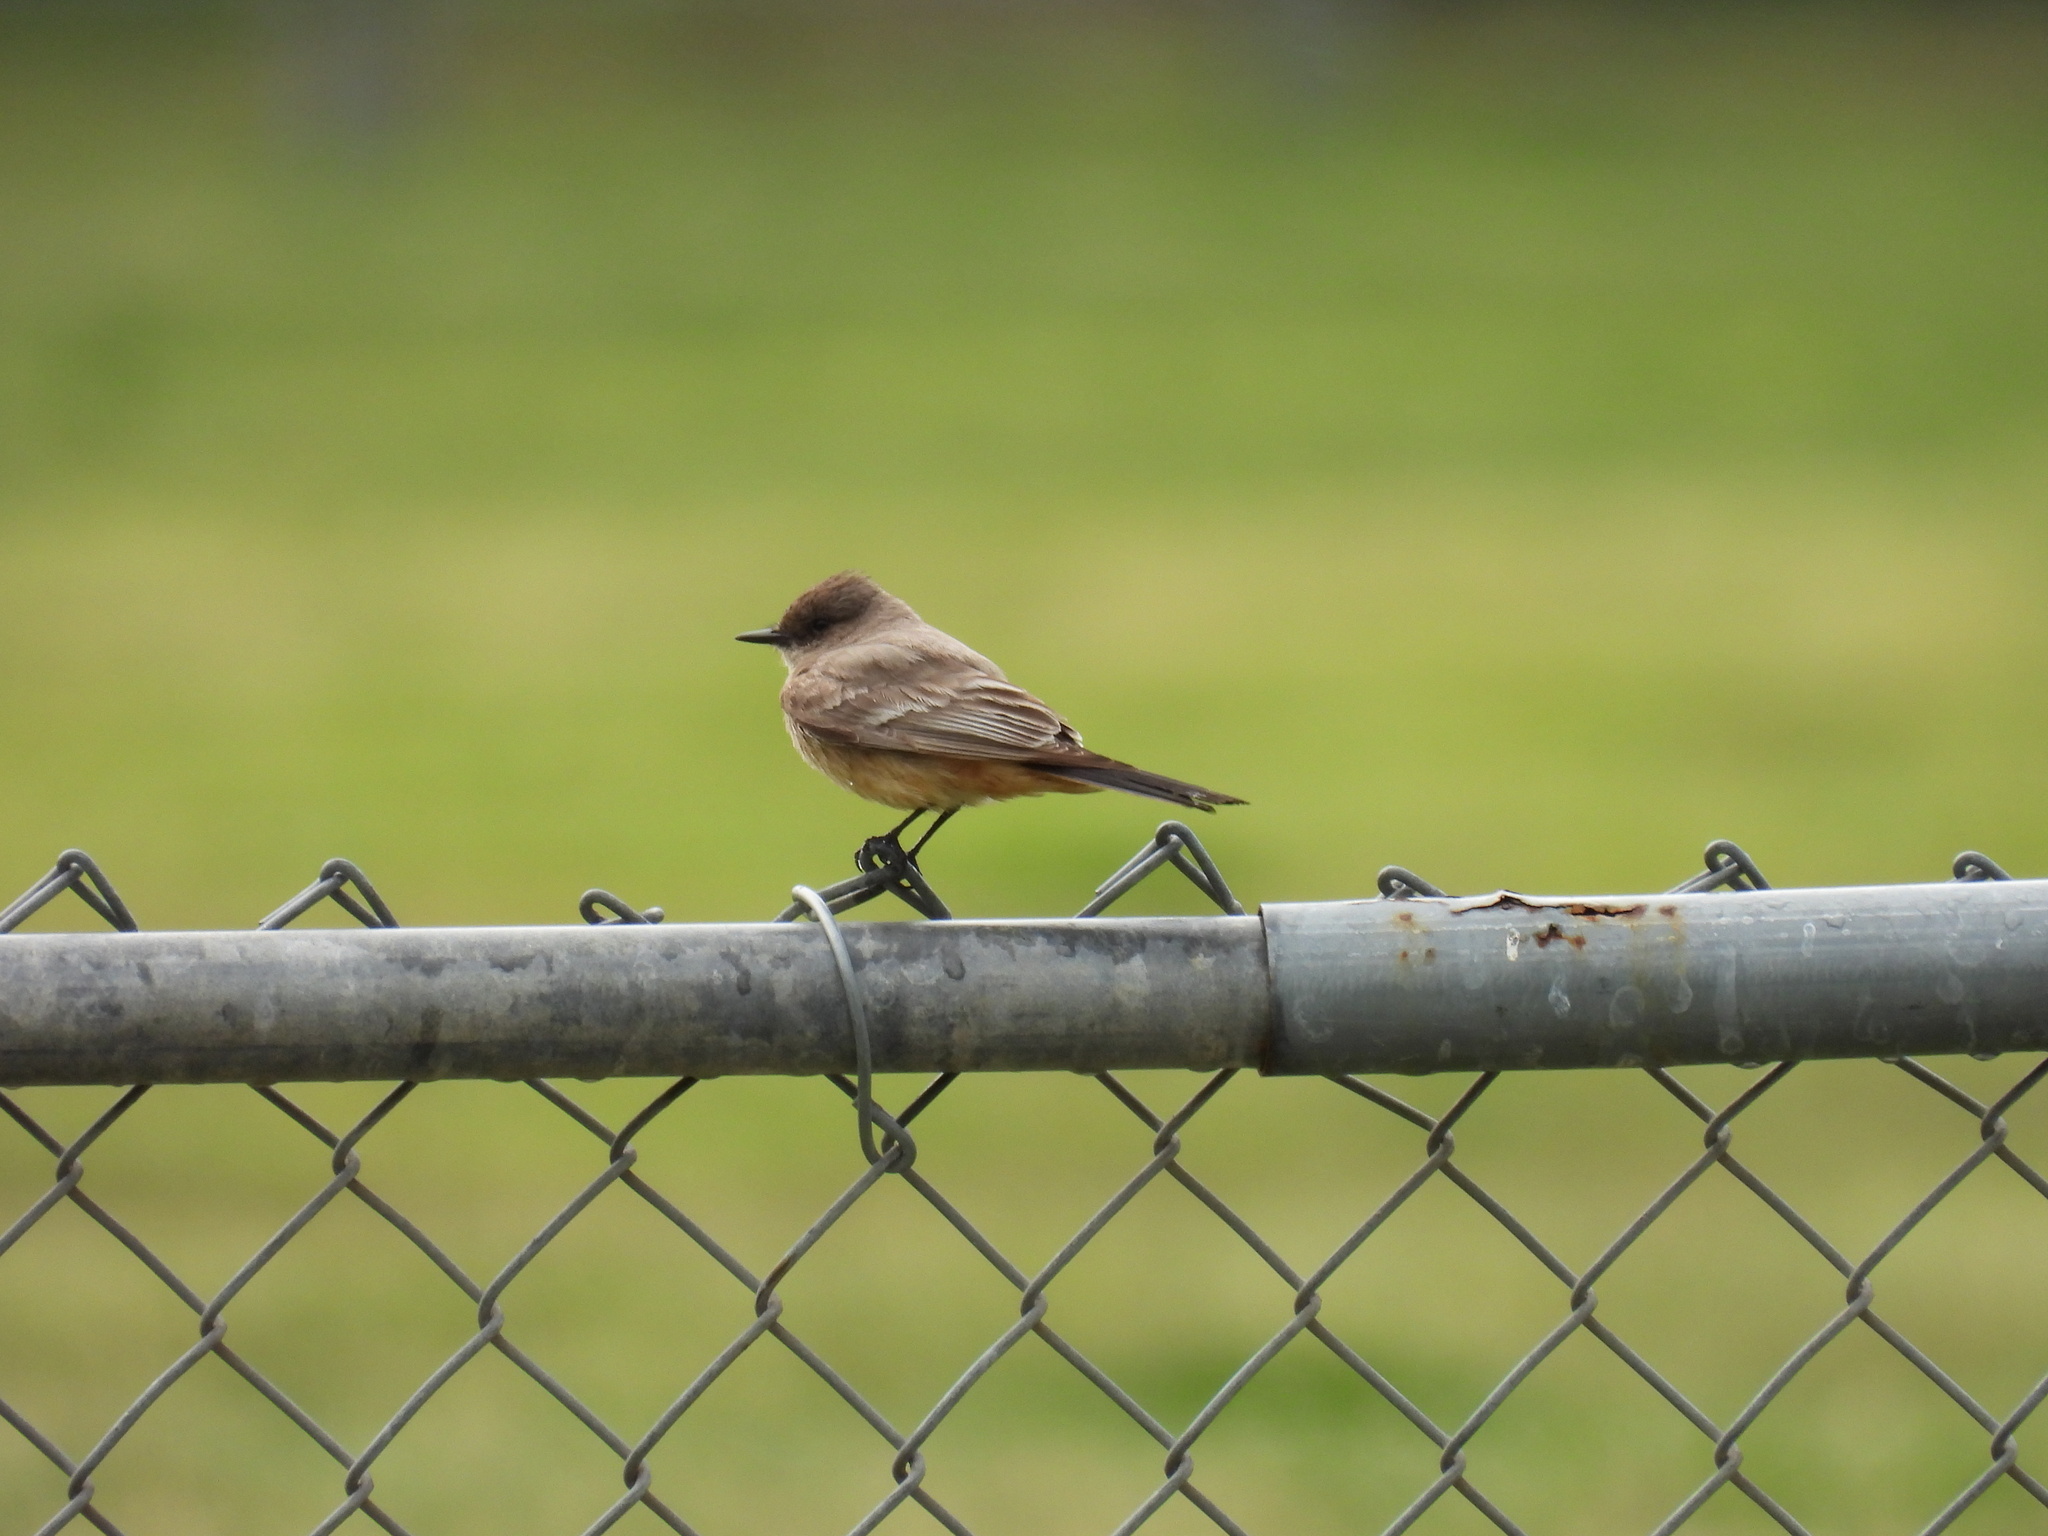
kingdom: Animalia
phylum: Chordata
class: Aves
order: Passeriformes
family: Tyrannidae
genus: Sayornis
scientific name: Sayornis saya
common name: Say's phoebe
